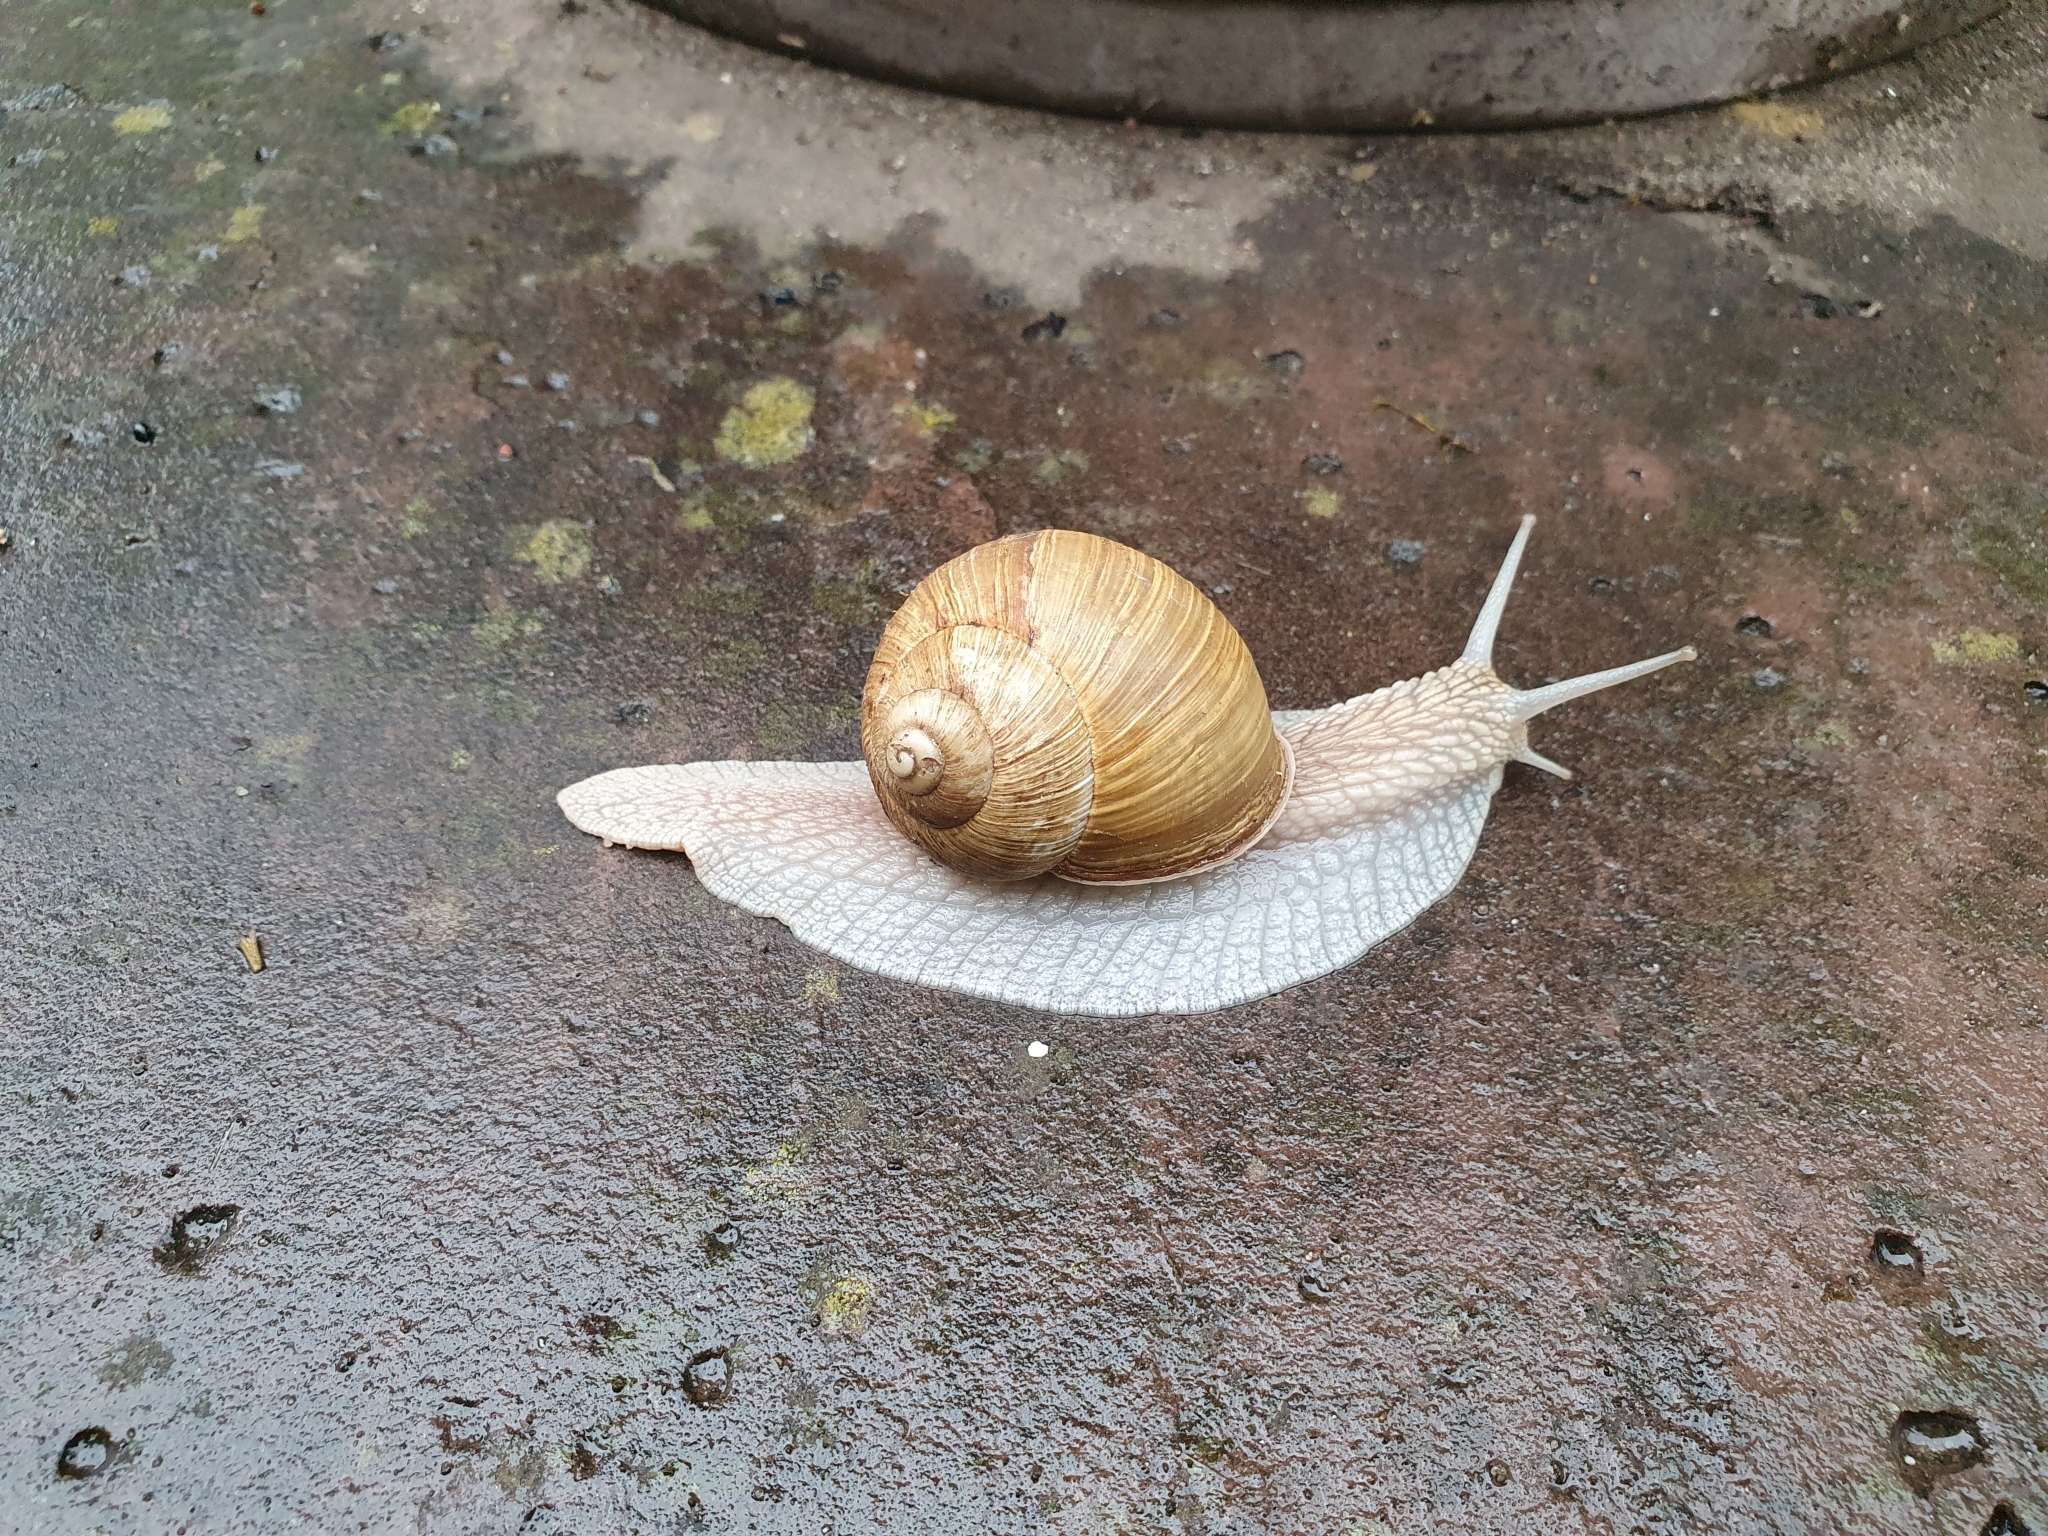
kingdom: Animalia
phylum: Mollusca
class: Gastropoda
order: Stylommatophora
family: Helicidae
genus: Helix
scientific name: Helix pomatia
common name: Roman snail
